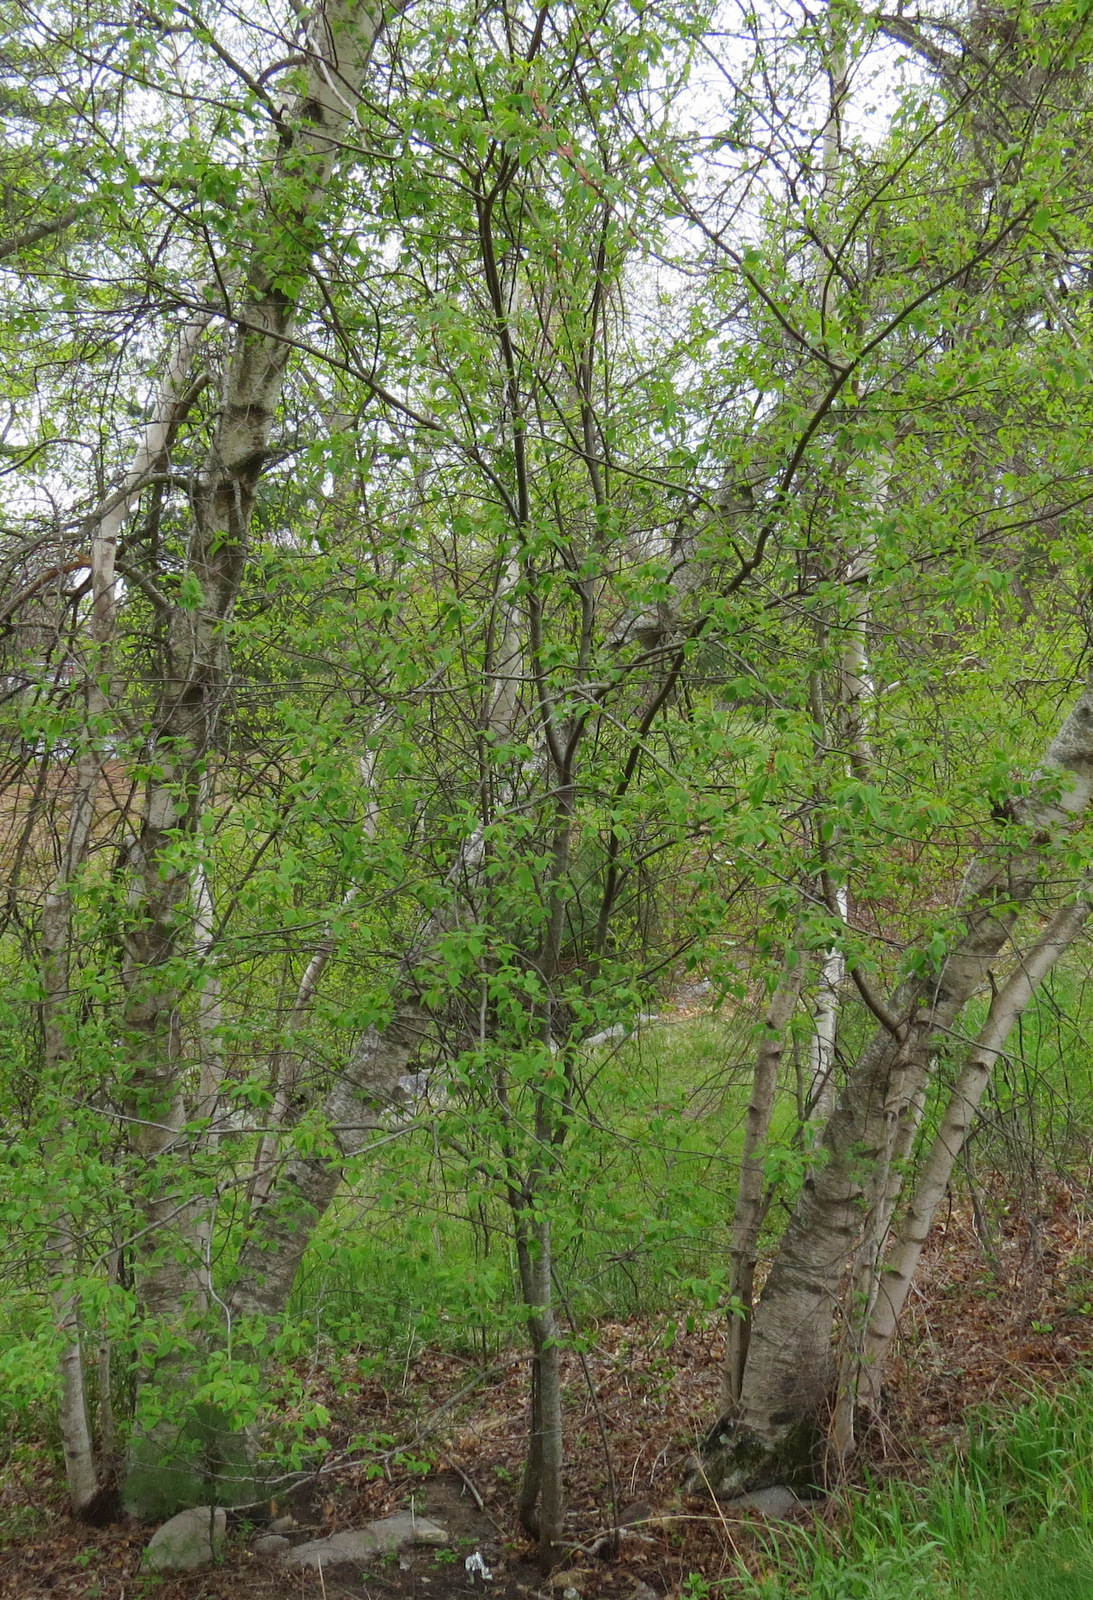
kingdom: Plantae
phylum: Tracheophyta
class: Magnoliopsida
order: Rosales
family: Rosaceae
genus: Prunus
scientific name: Prunus serotina
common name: Black cherry
